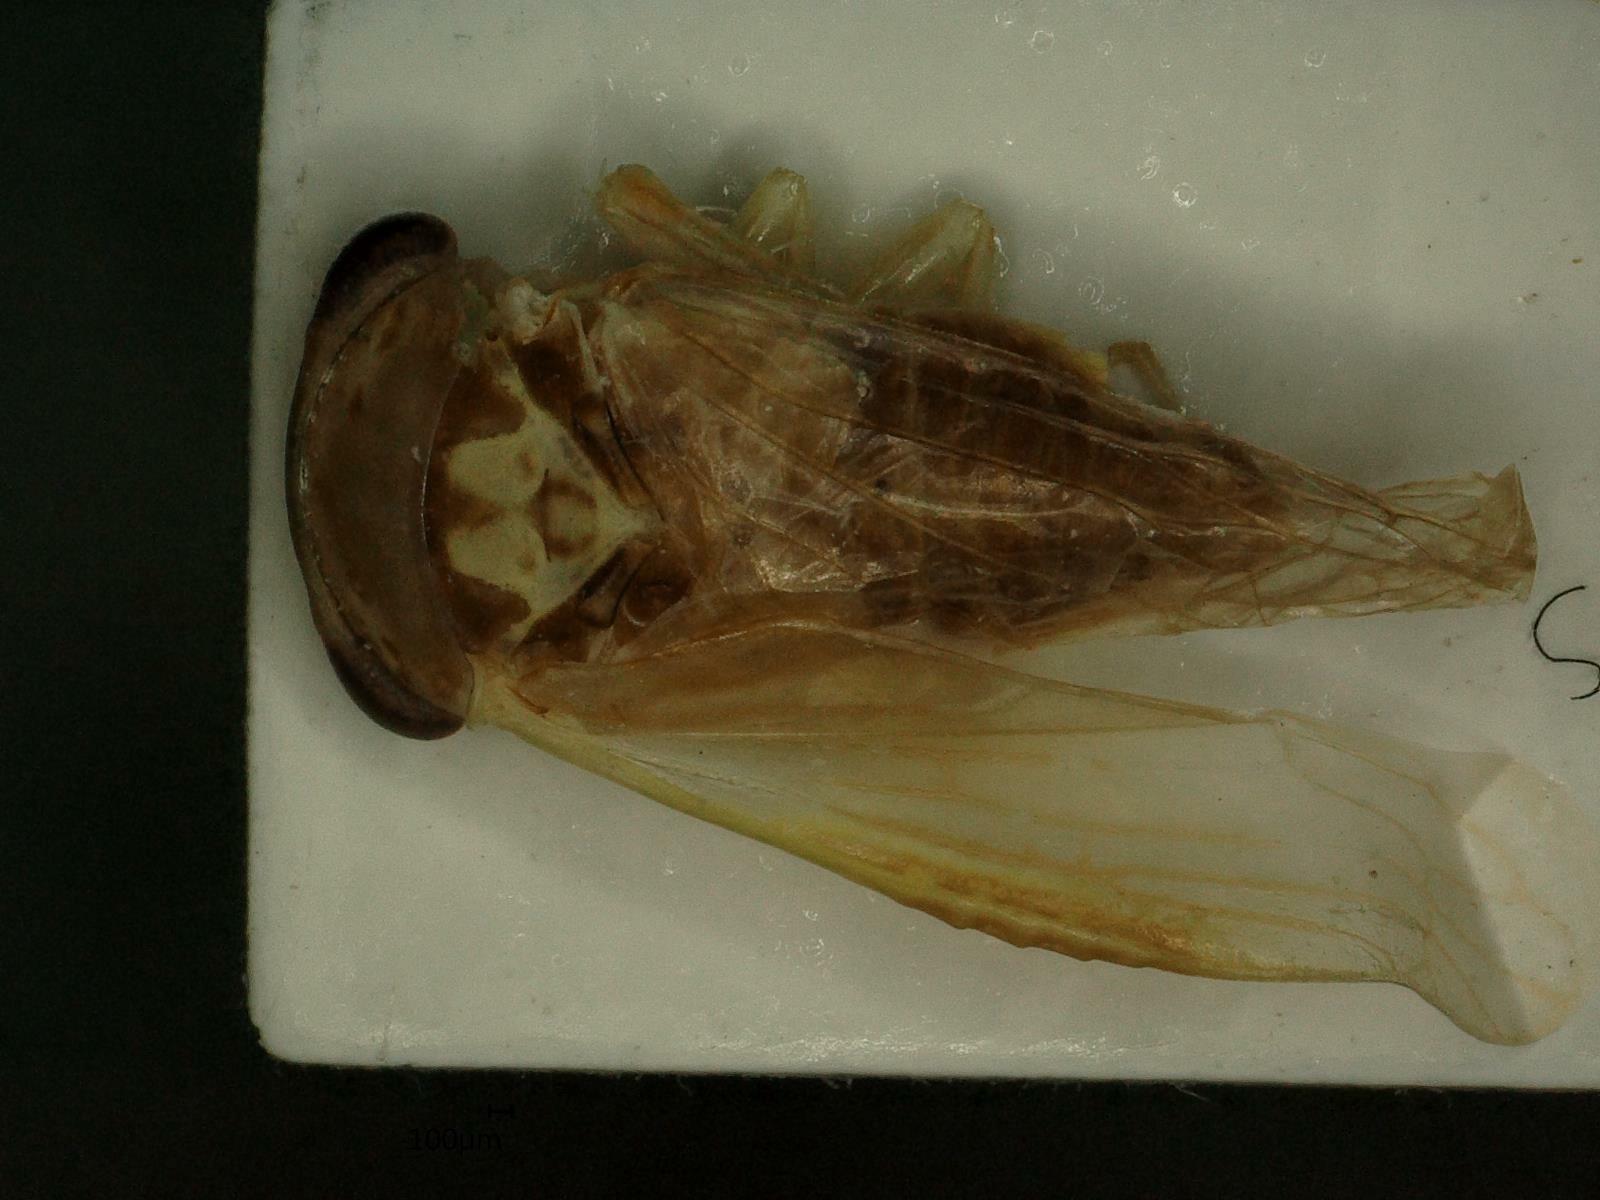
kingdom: Animalia
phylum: Arthropoda
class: Insecta
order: Hemiptera
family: Cicadellidae
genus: Idiocerus
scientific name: Idiocerus stigmaticalis
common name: Leafhopper
